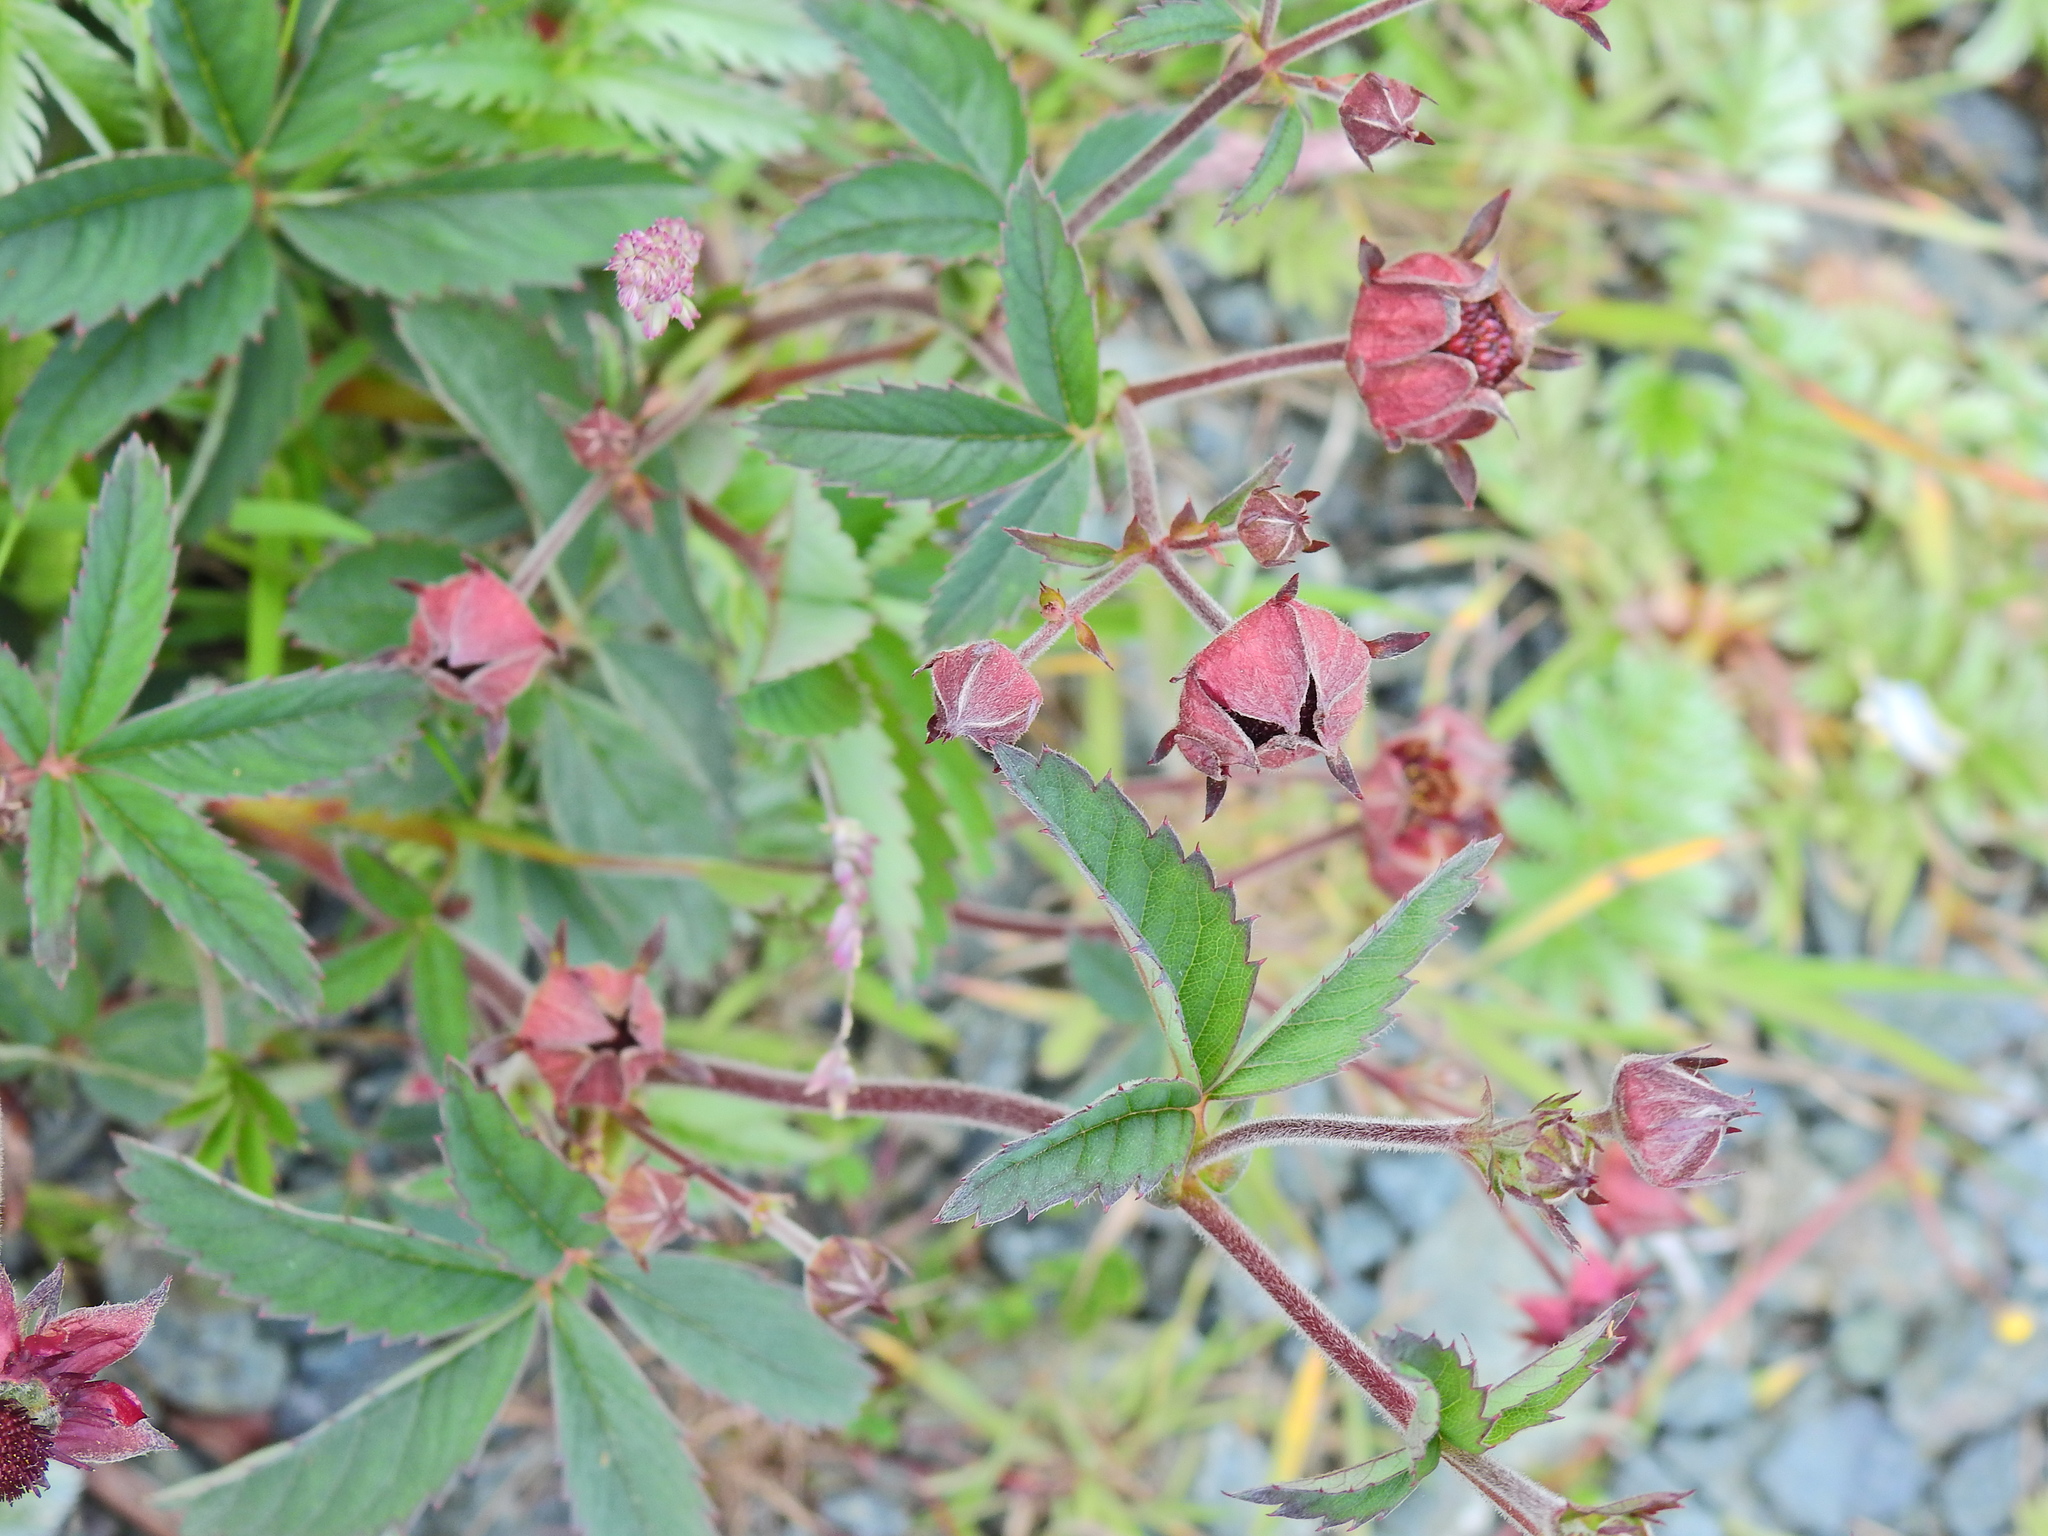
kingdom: Plantae
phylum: Tracheophyta
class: Magnoliopsida
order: Rosales
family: Rosaceae
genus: Comarum
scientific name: Comarum palustre
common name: Marsh cinquefoil
